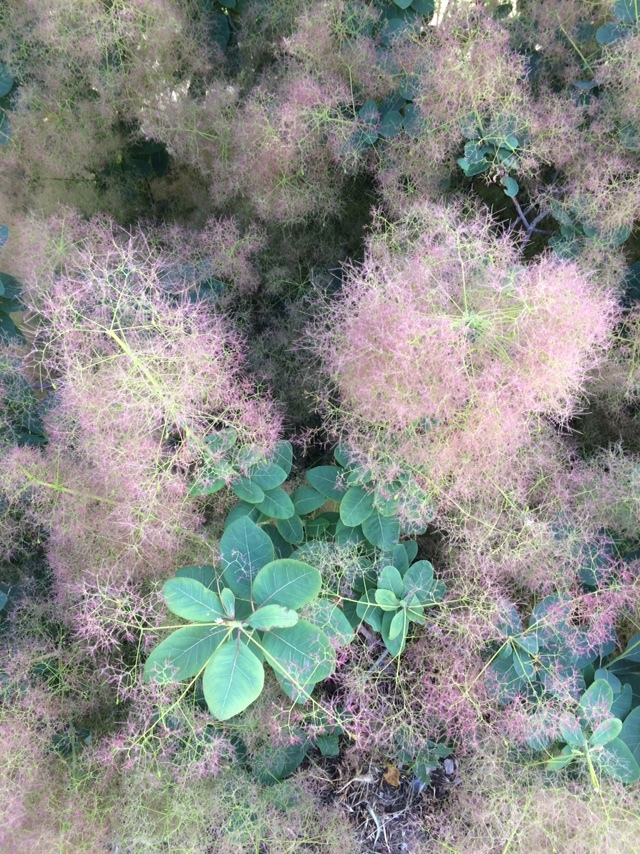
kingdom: Plantae
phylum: Tracheophyta
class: Magnoliopsida
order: Sapindales
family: Anacardiaceae
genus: Cotinus
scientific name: Cotinus coggygria
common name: Smoke-tree
